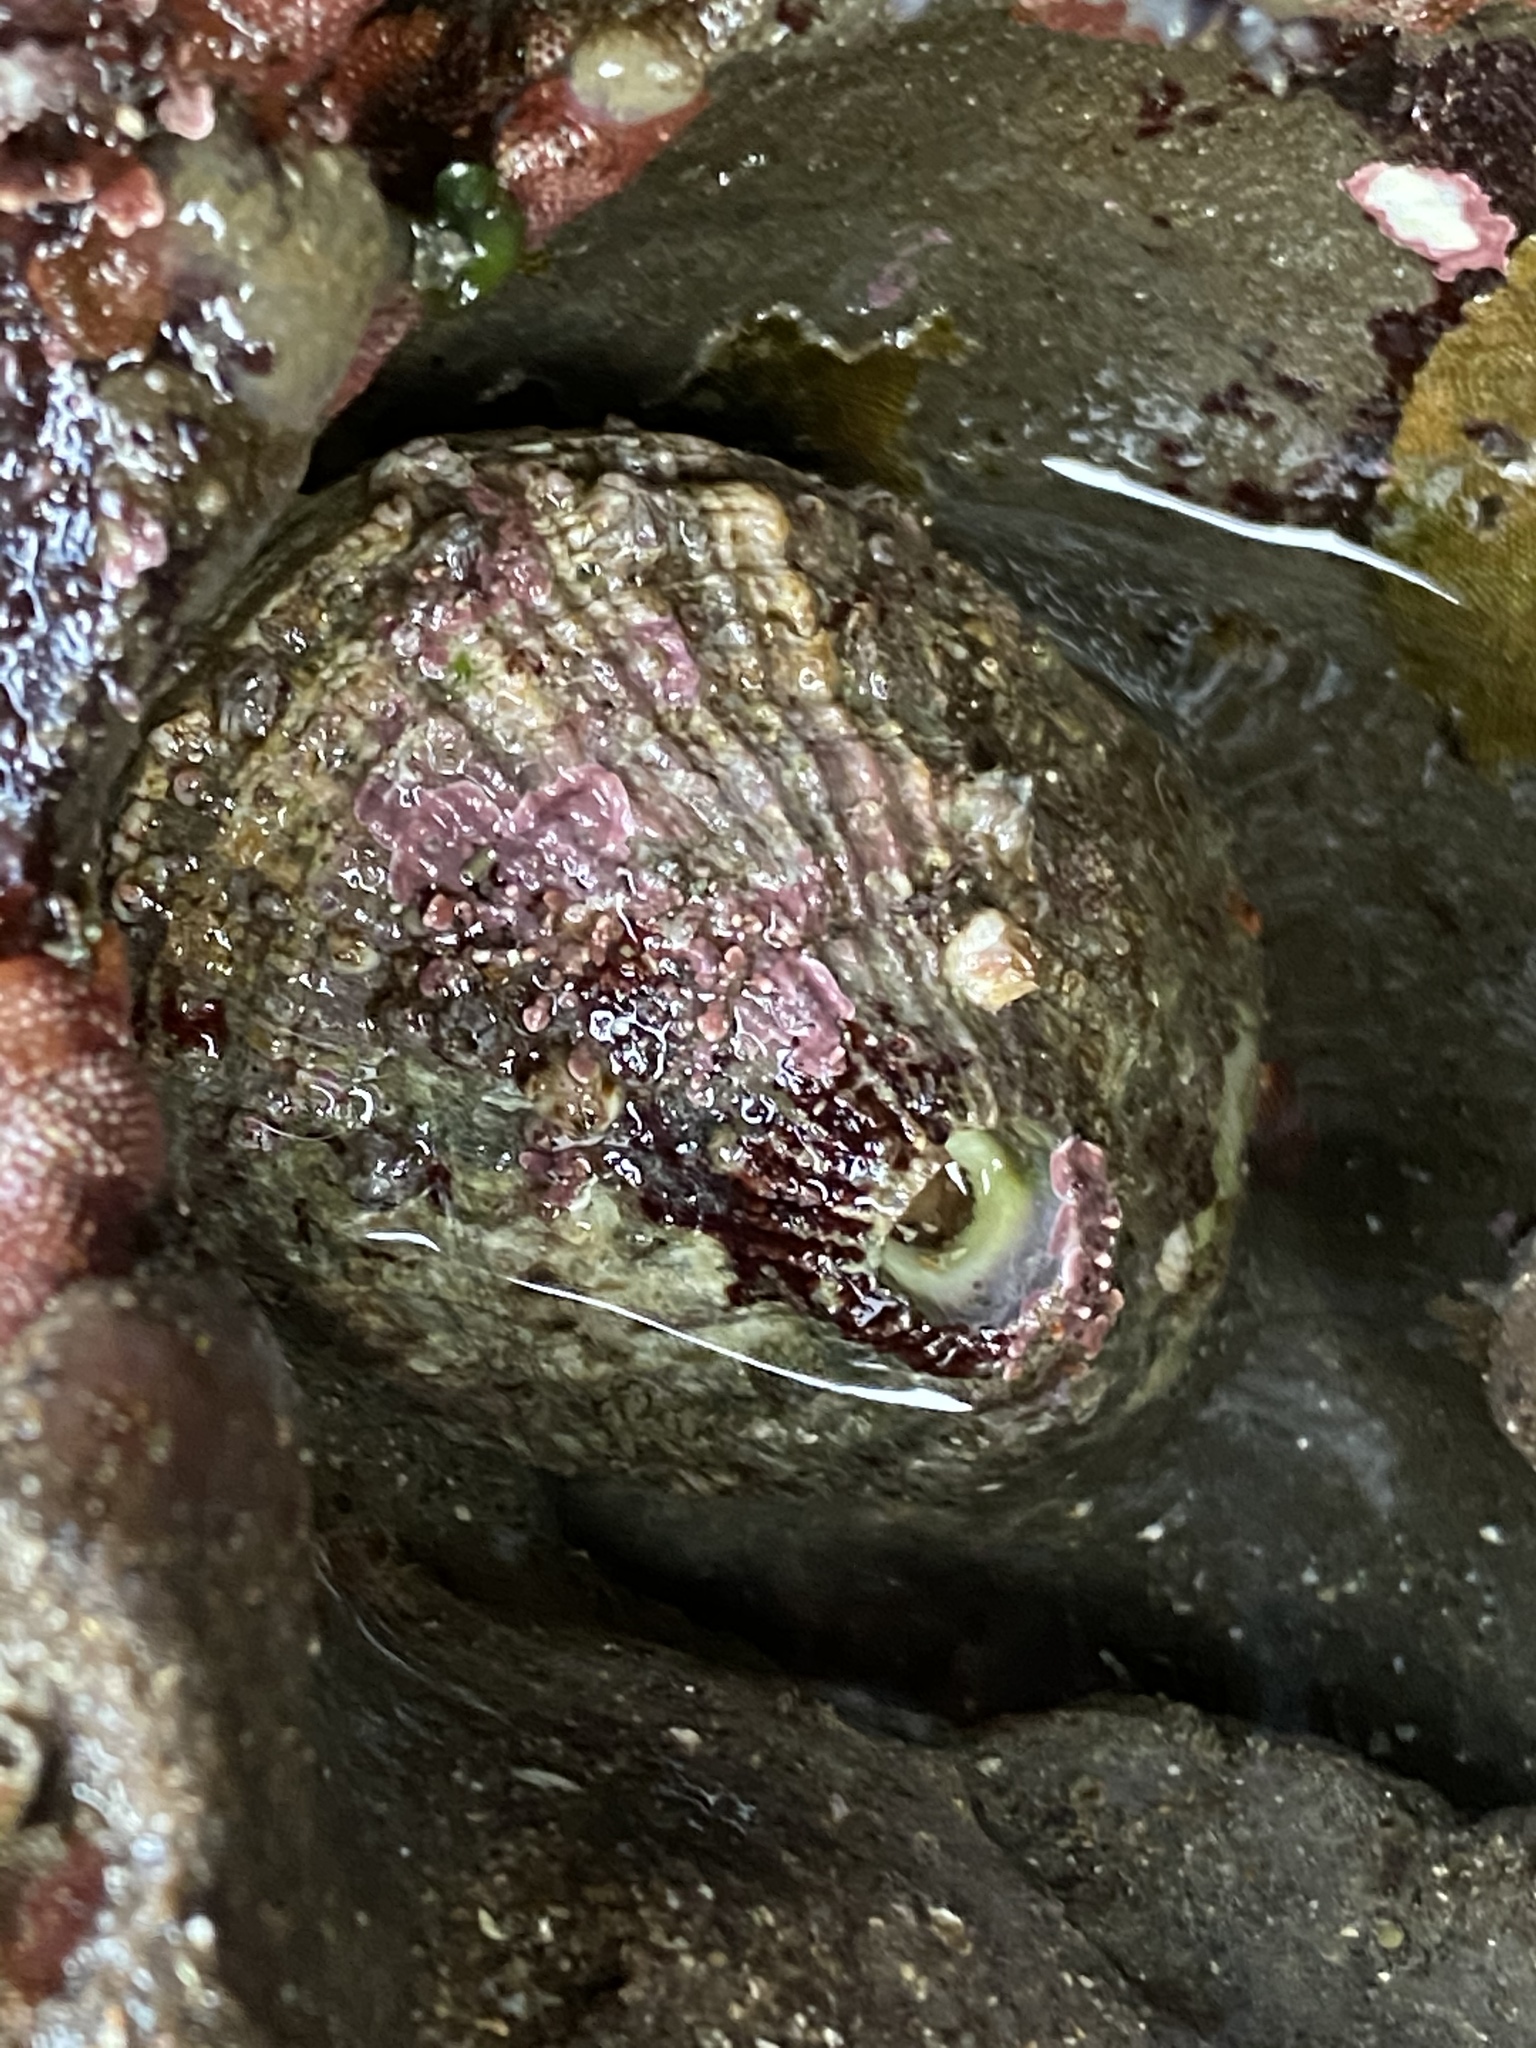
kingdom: Animalia
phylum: Mollusca
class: Gastropoda
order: Lepetellida
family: Fissurellidae
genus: Diodora
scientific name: Diodora aspera
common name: Rough keyhole limpet
